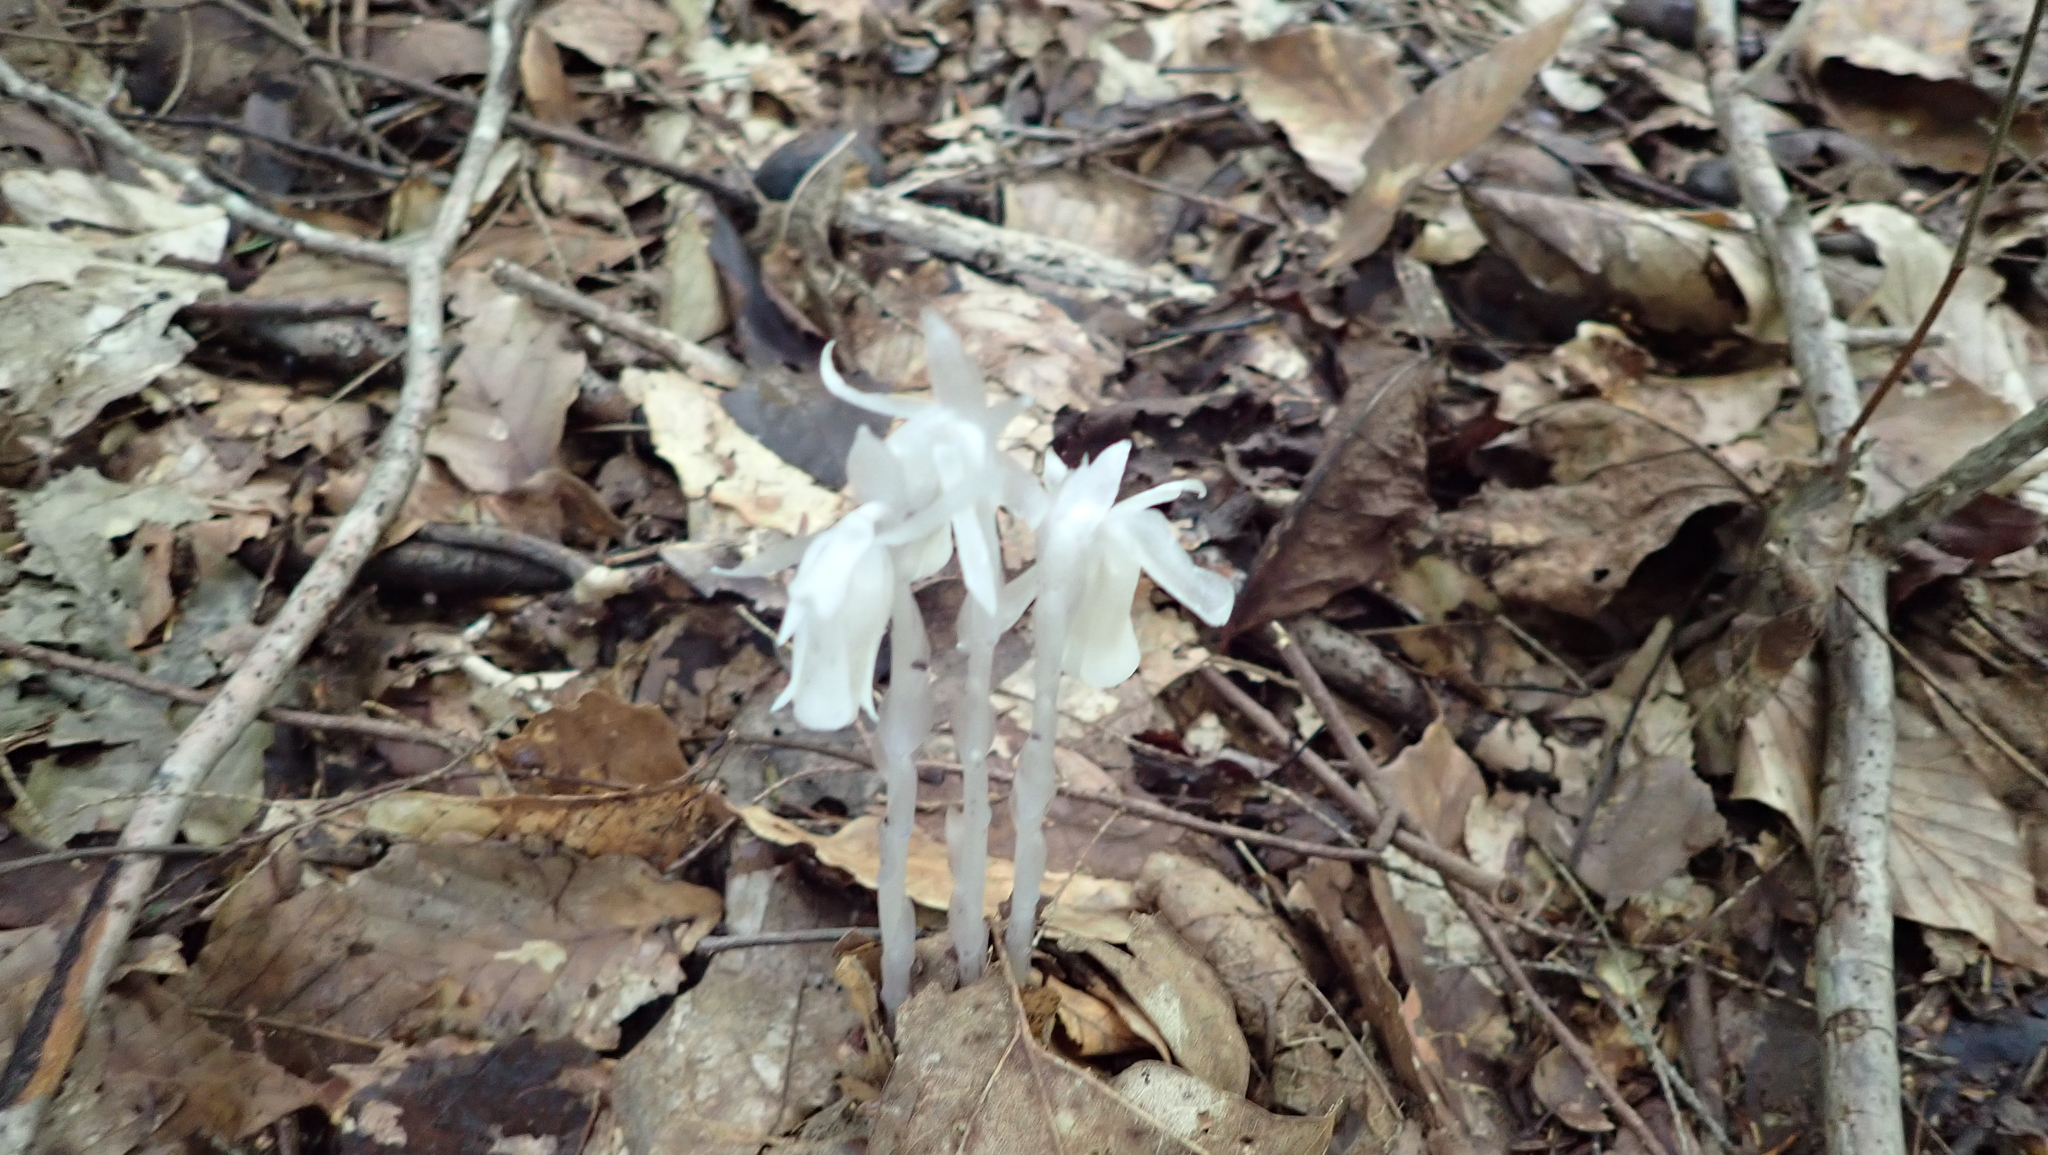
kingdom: Plantae
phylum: Tracheophyta
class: Magnoliopsida
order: Ericales
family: Ericaceae
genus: Monotropa
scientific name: Monotropa uniflora
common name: Convulsion root
